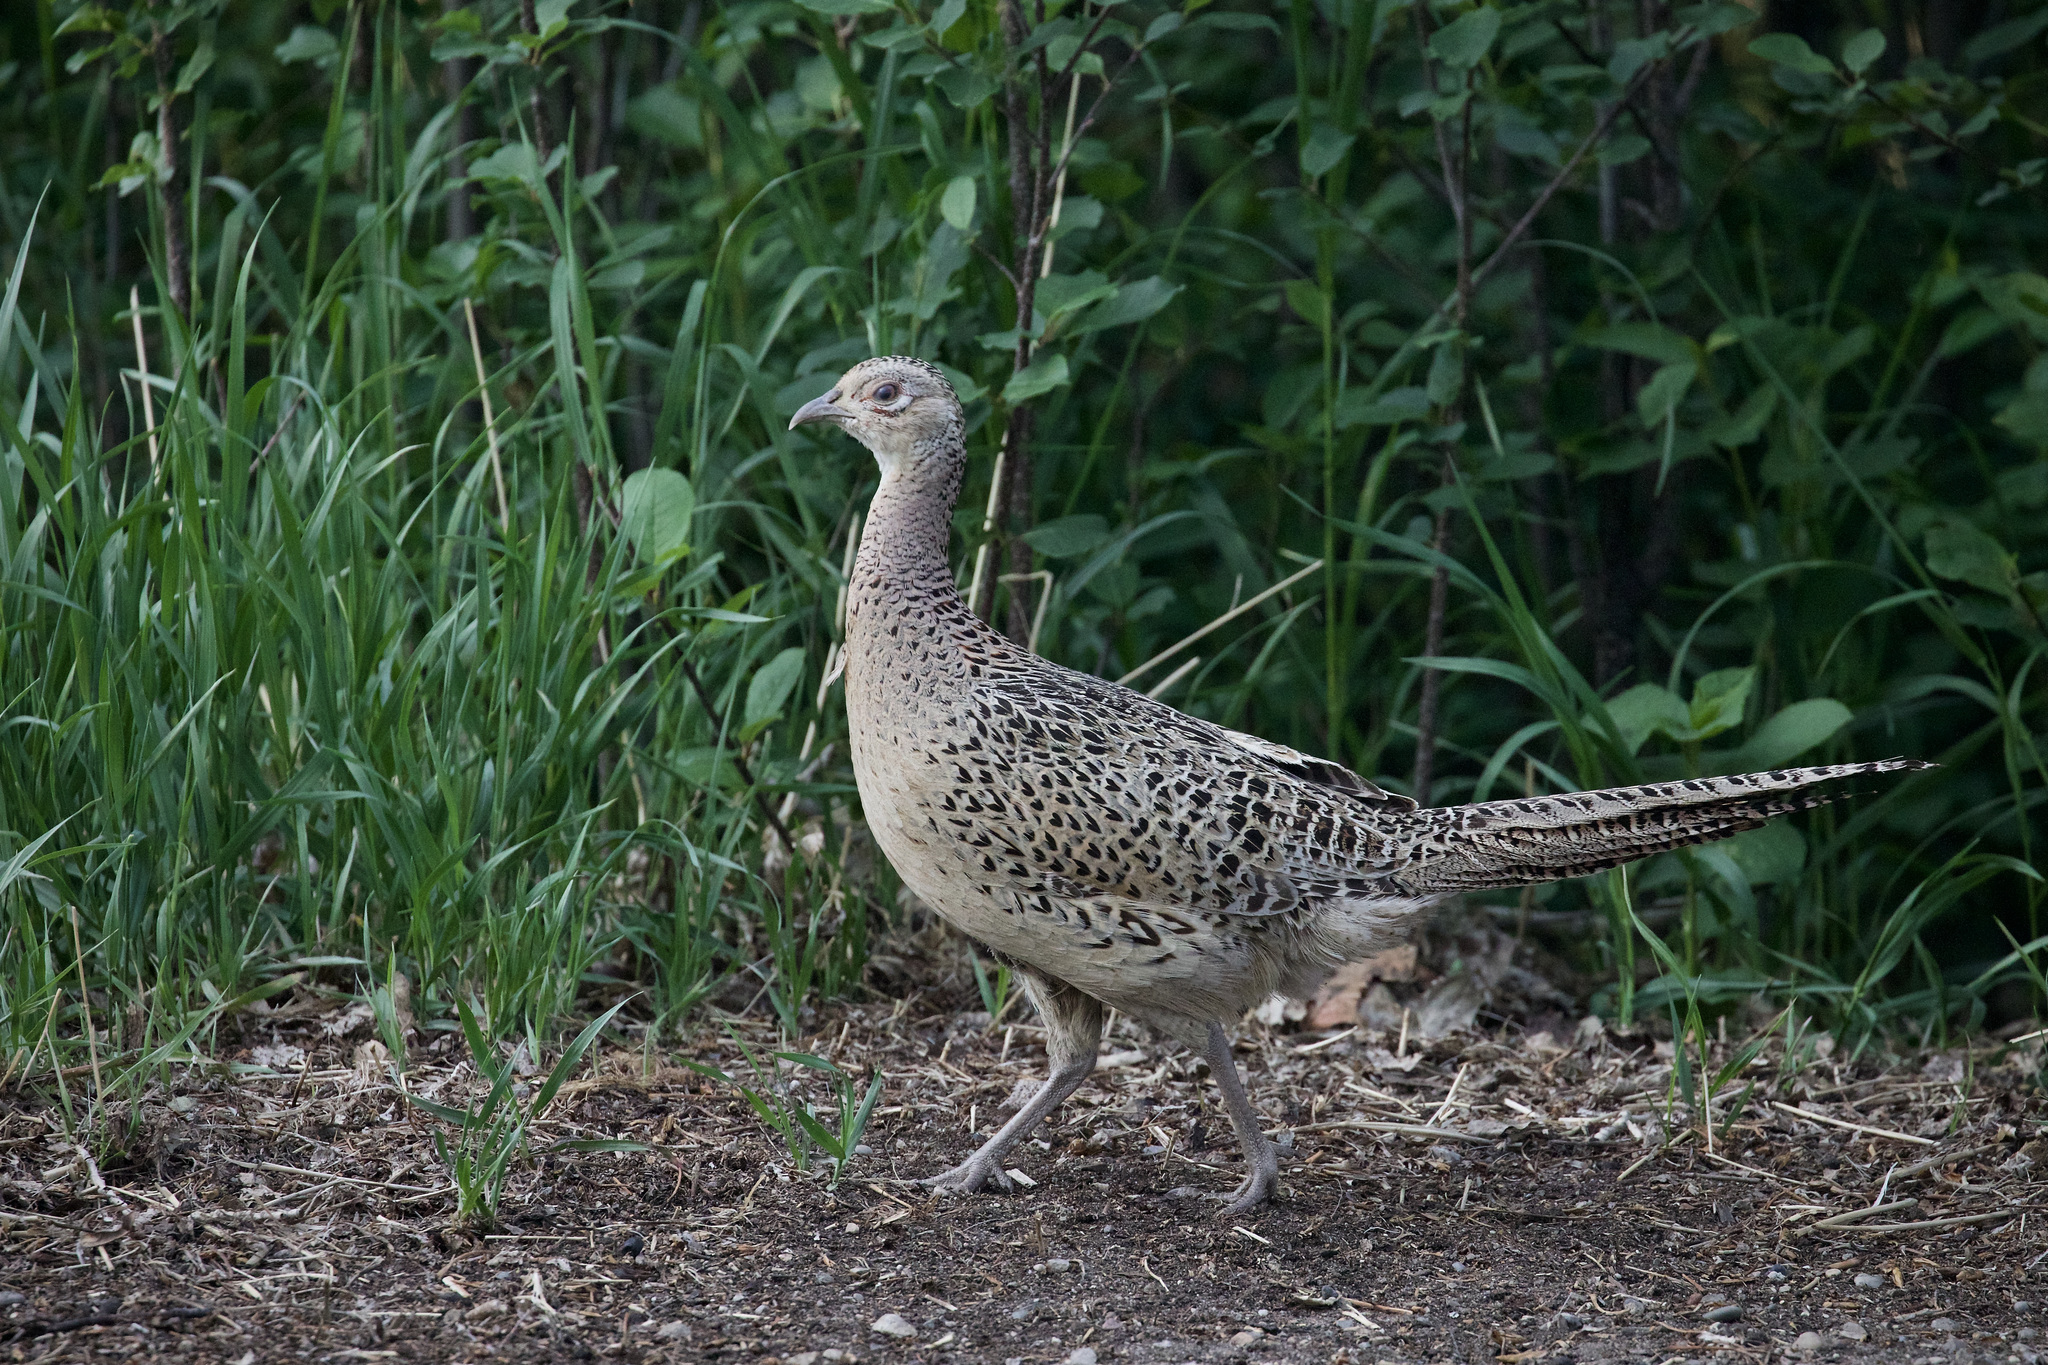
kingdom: Animalia
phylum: Chordata
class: Aves
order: Galliformes
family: Phasianidae
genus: Phasianus
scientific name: Phasianus colchicus
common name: Common pheasant
